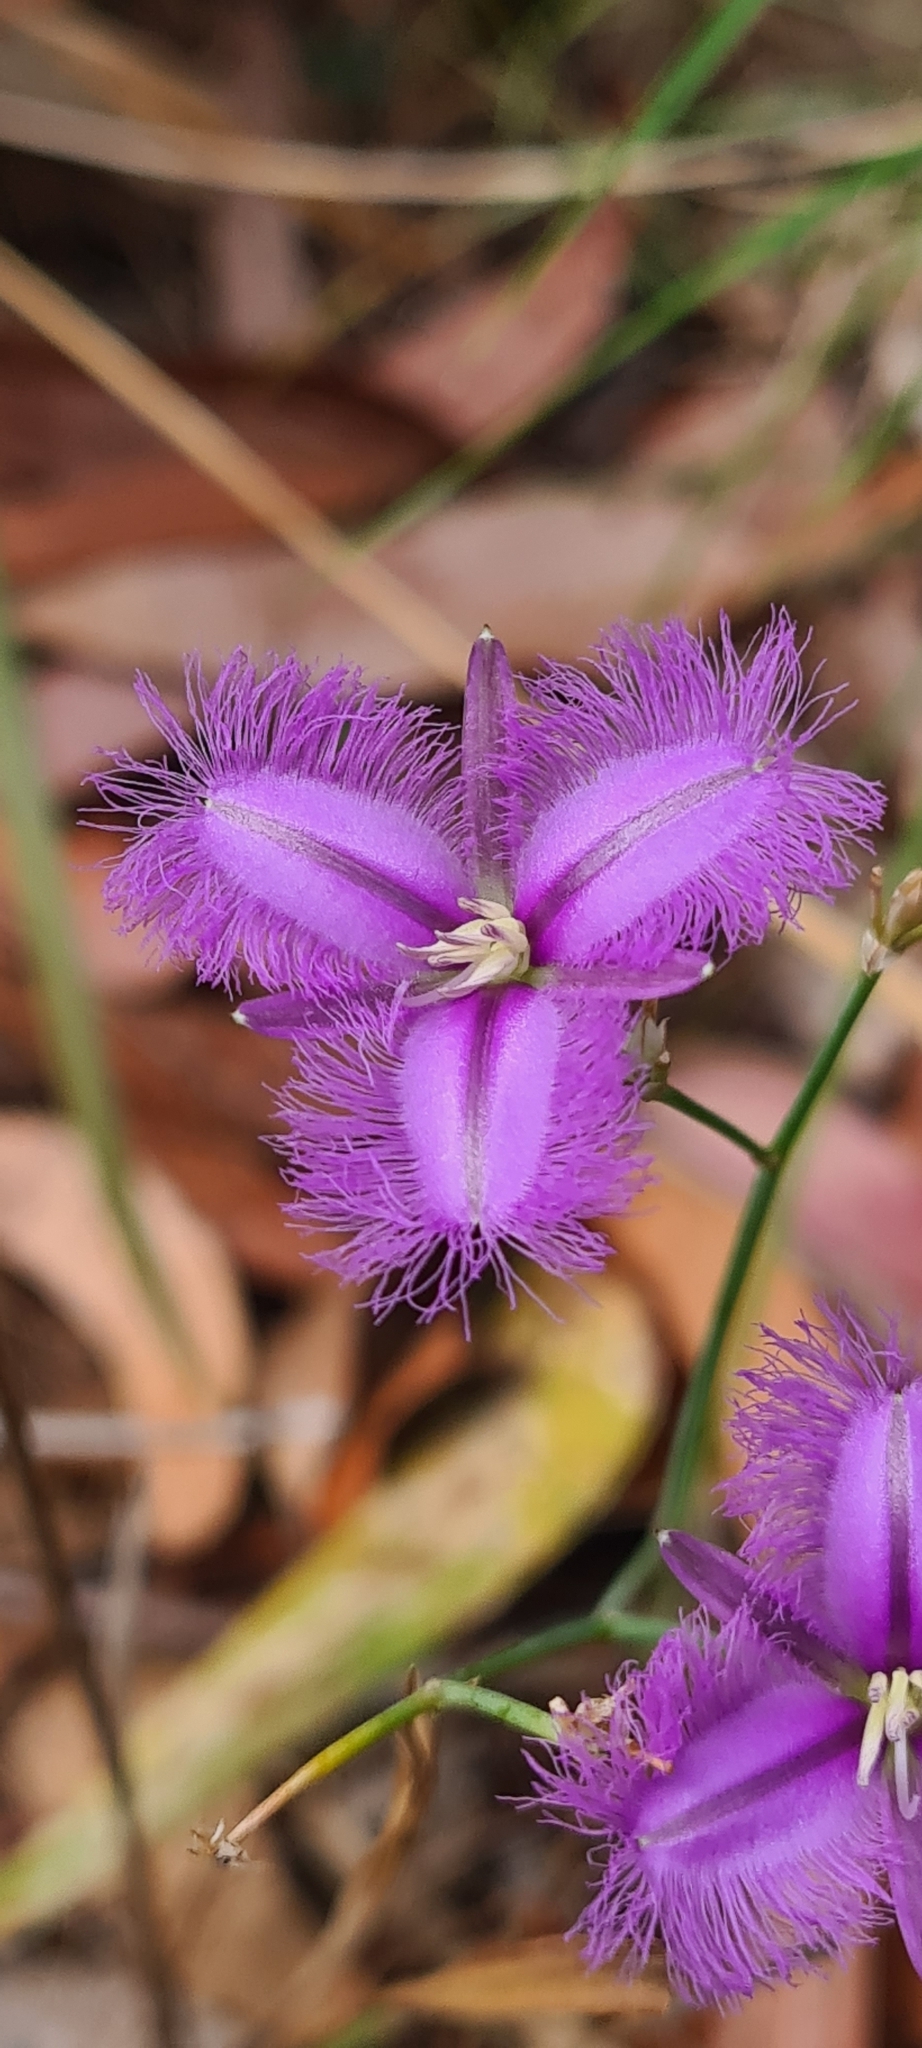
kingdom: Plantae
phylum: Tracheophyta
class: Liliopsida
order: Asparagales
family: Asparagaceae
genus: Thysanotus
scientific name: Thysanotus tuberosus
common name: Common fringed-lily
